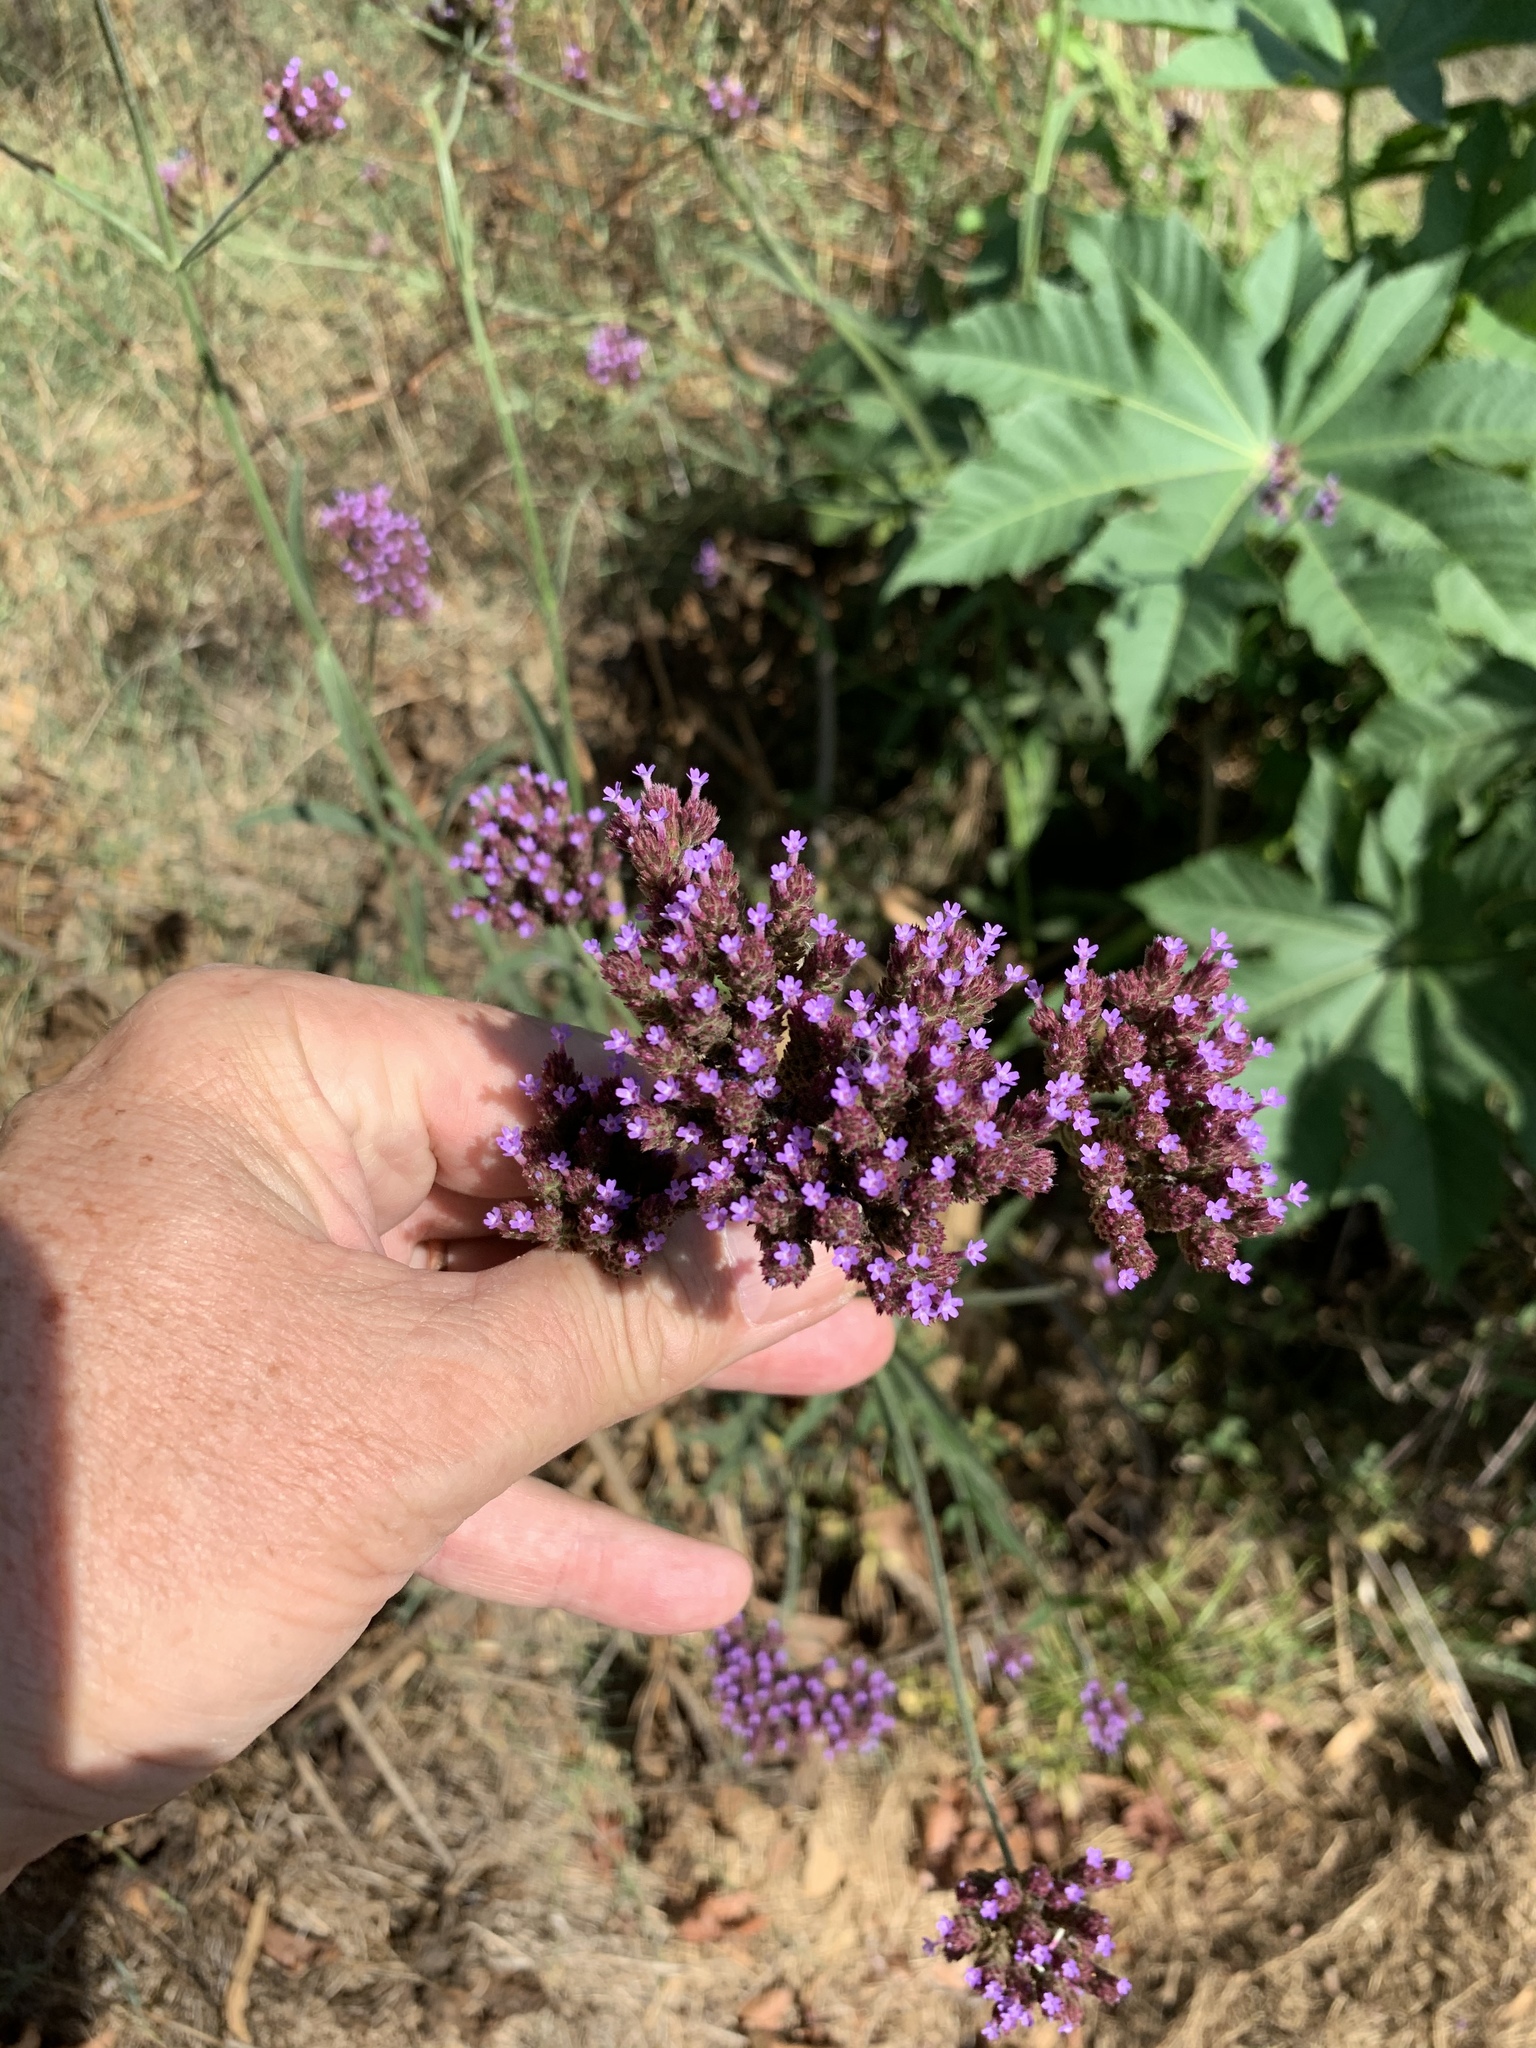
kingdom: Plantae
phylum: Tracheophyta
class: Magnoliopsida
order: Lamiales
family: Verbenaceae
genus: Verbena
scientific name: Verbena bonariensis
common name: Purpletop vervain
